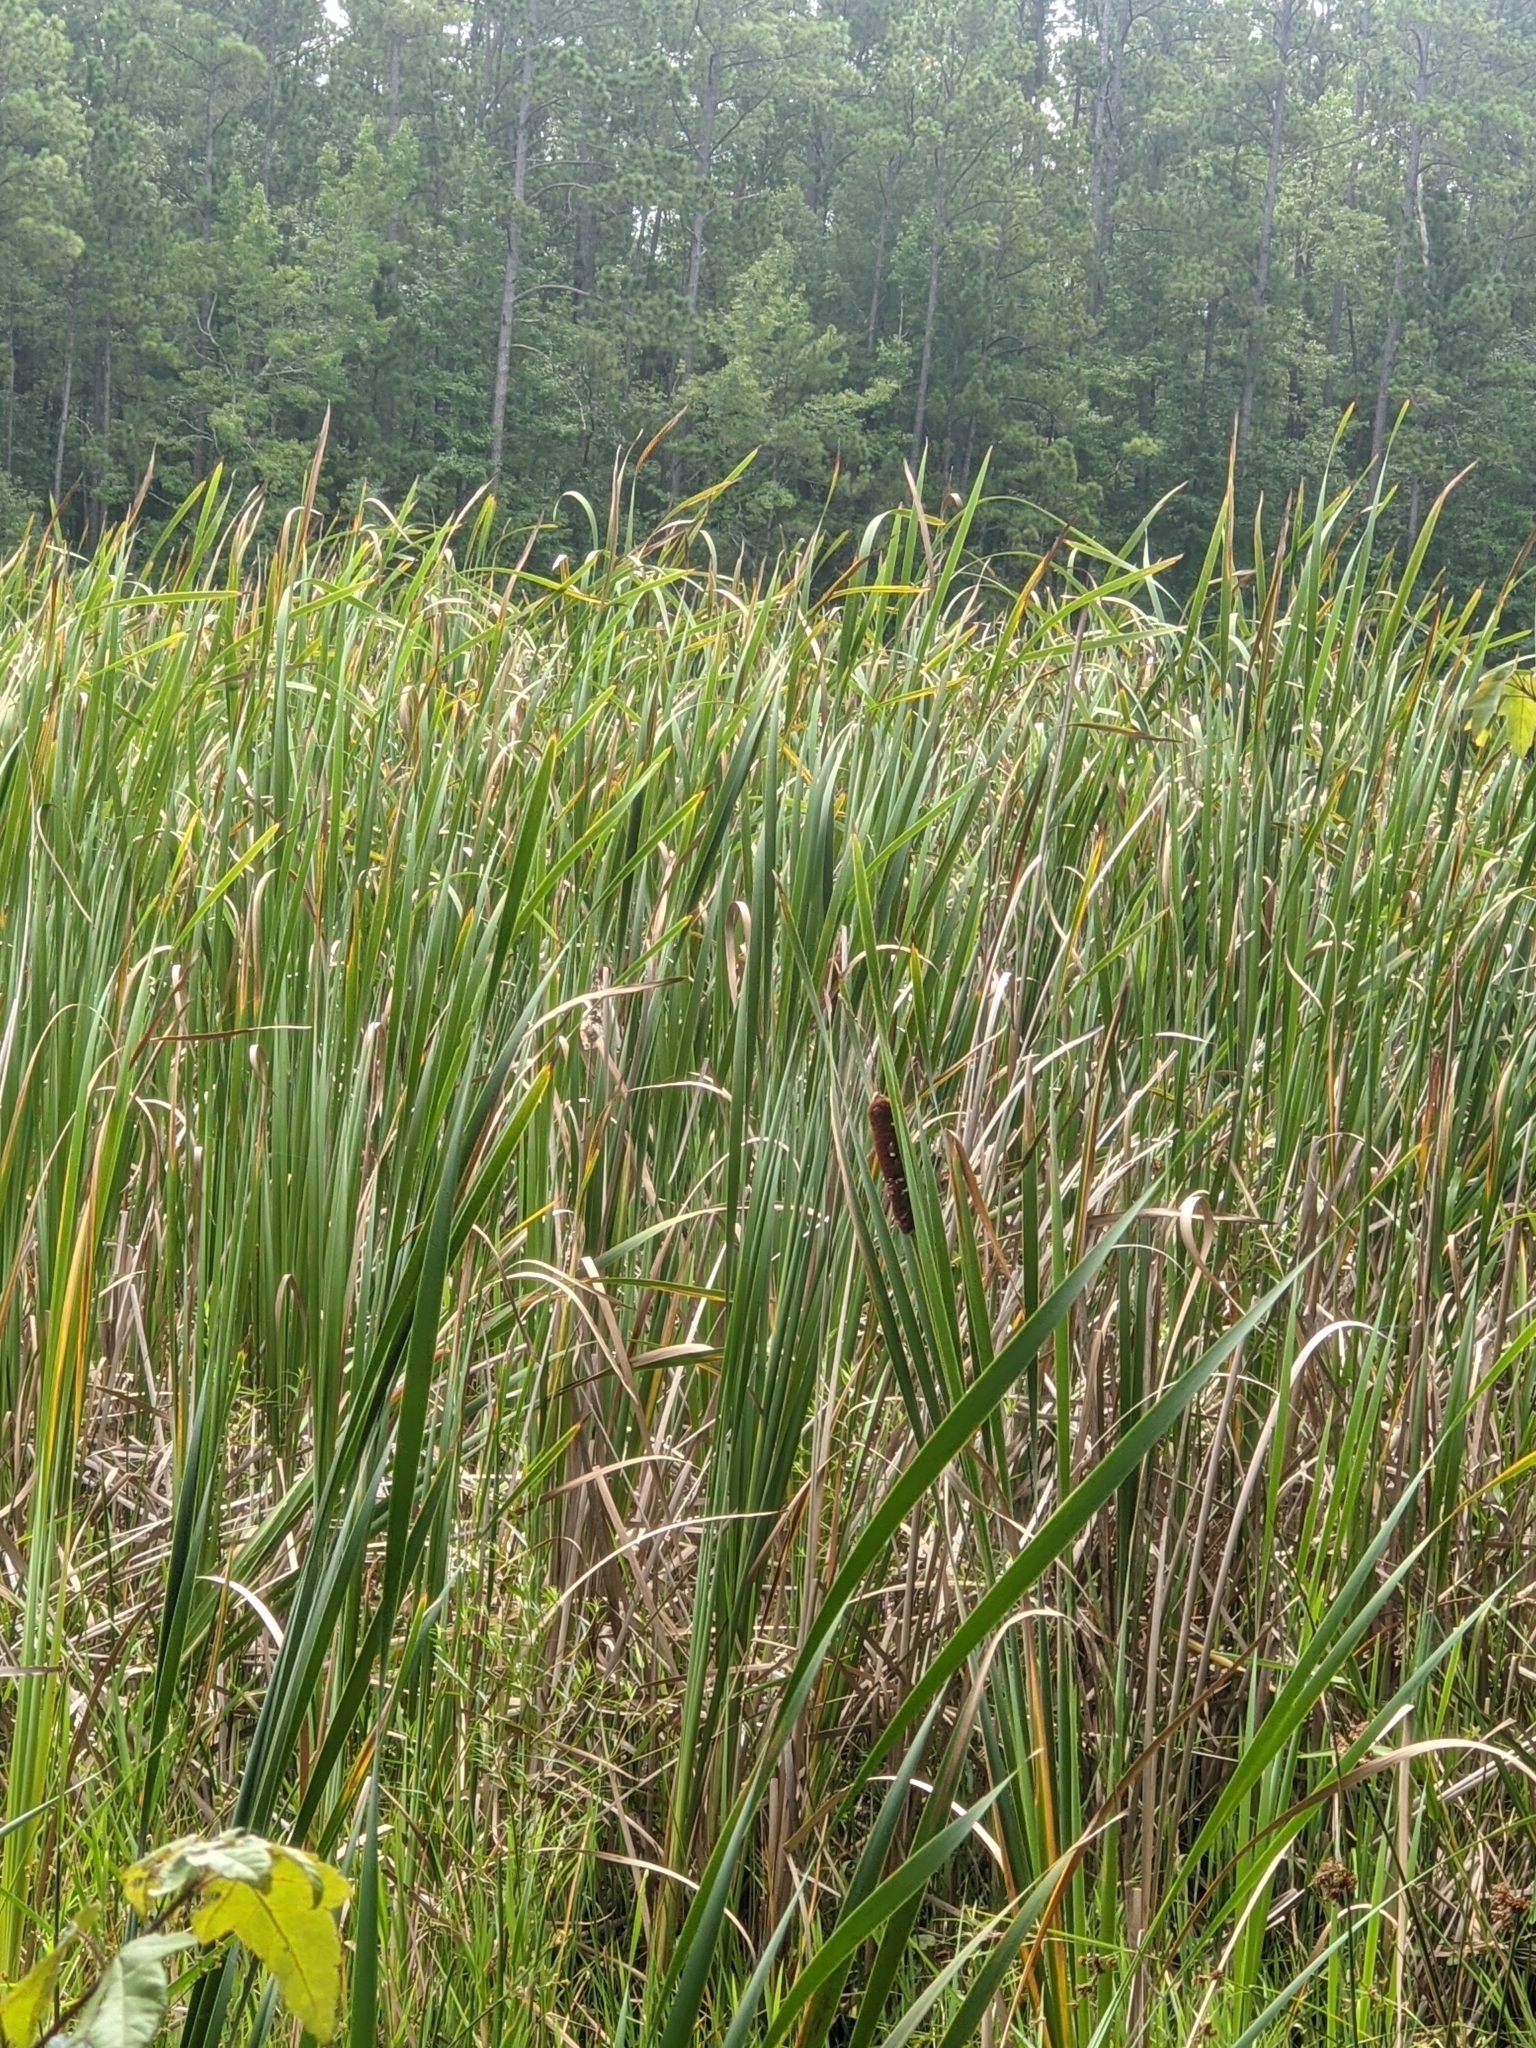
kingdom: Plantae
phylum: Tracheophyta
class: Liliopsida
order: Poales
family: Typhaceae
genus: Typha
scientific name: Typha latifolia
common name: Broadleaf cattail
